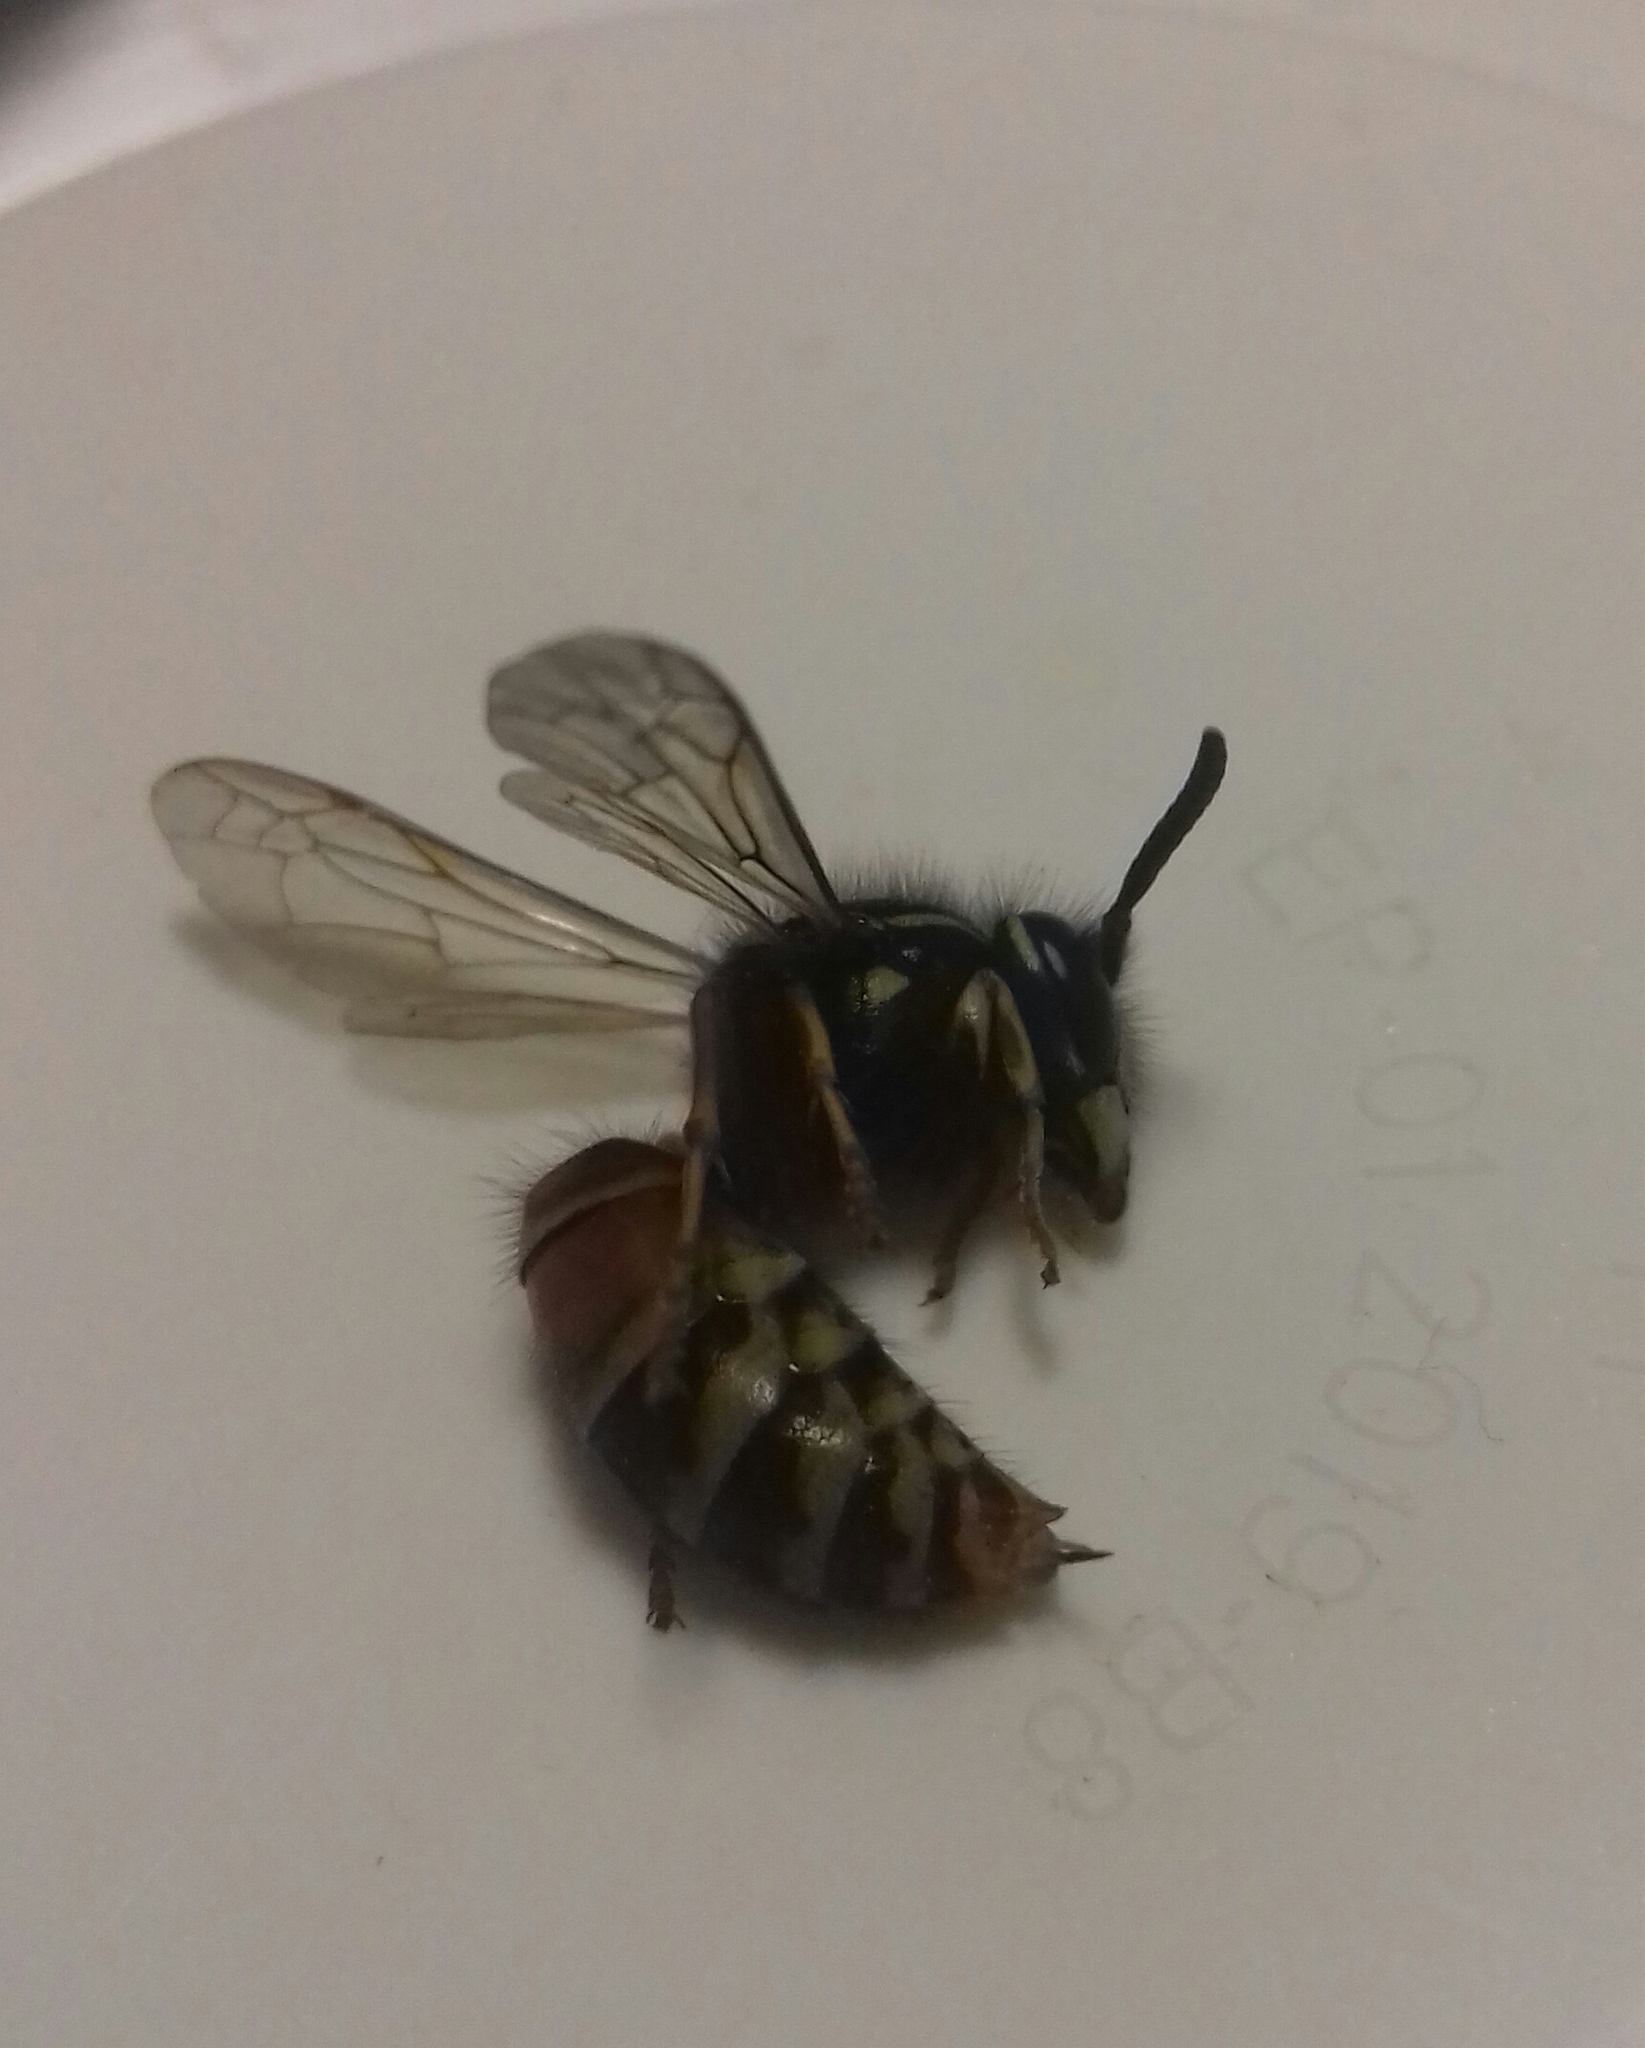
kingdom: Animalia
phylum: Arthropoda
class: Insecta
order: Hymenoptera
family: Vespidae
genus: Vespula
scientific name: Vespula rufa
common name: Red wasp
